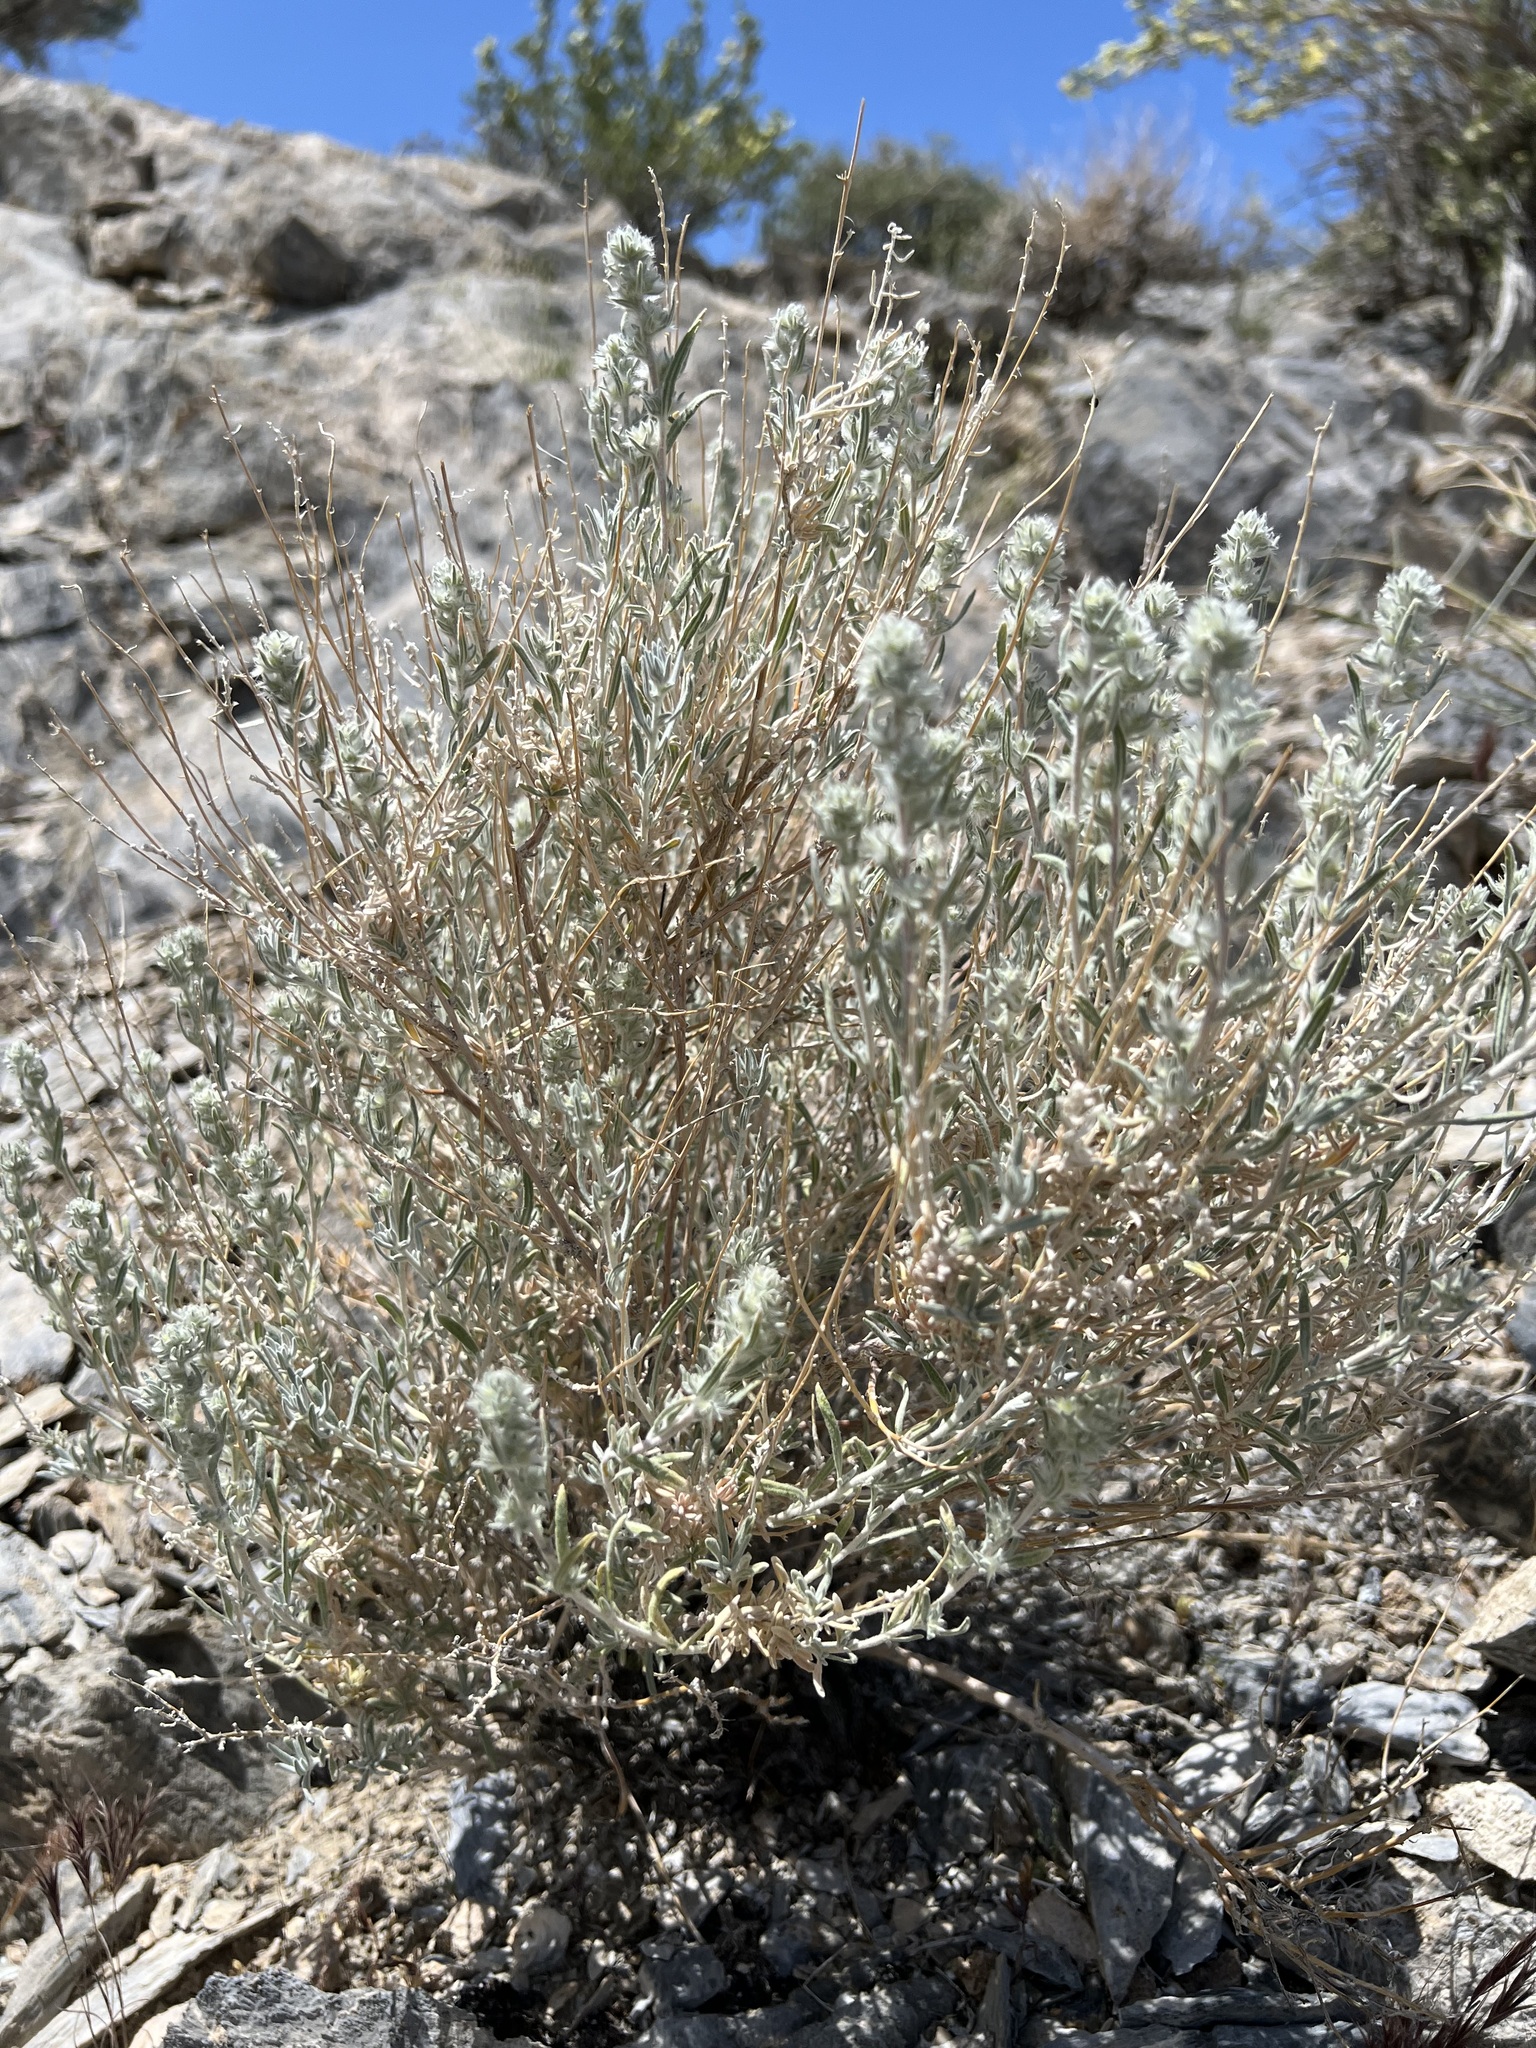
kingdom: Plantae
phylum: Tracheophyta
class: Magnoliopsida
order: Caryophyllales
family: Amaranthaceae
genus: Krascheninnikovia
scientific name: Krascheninnikovia lanata
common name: Winterfat
